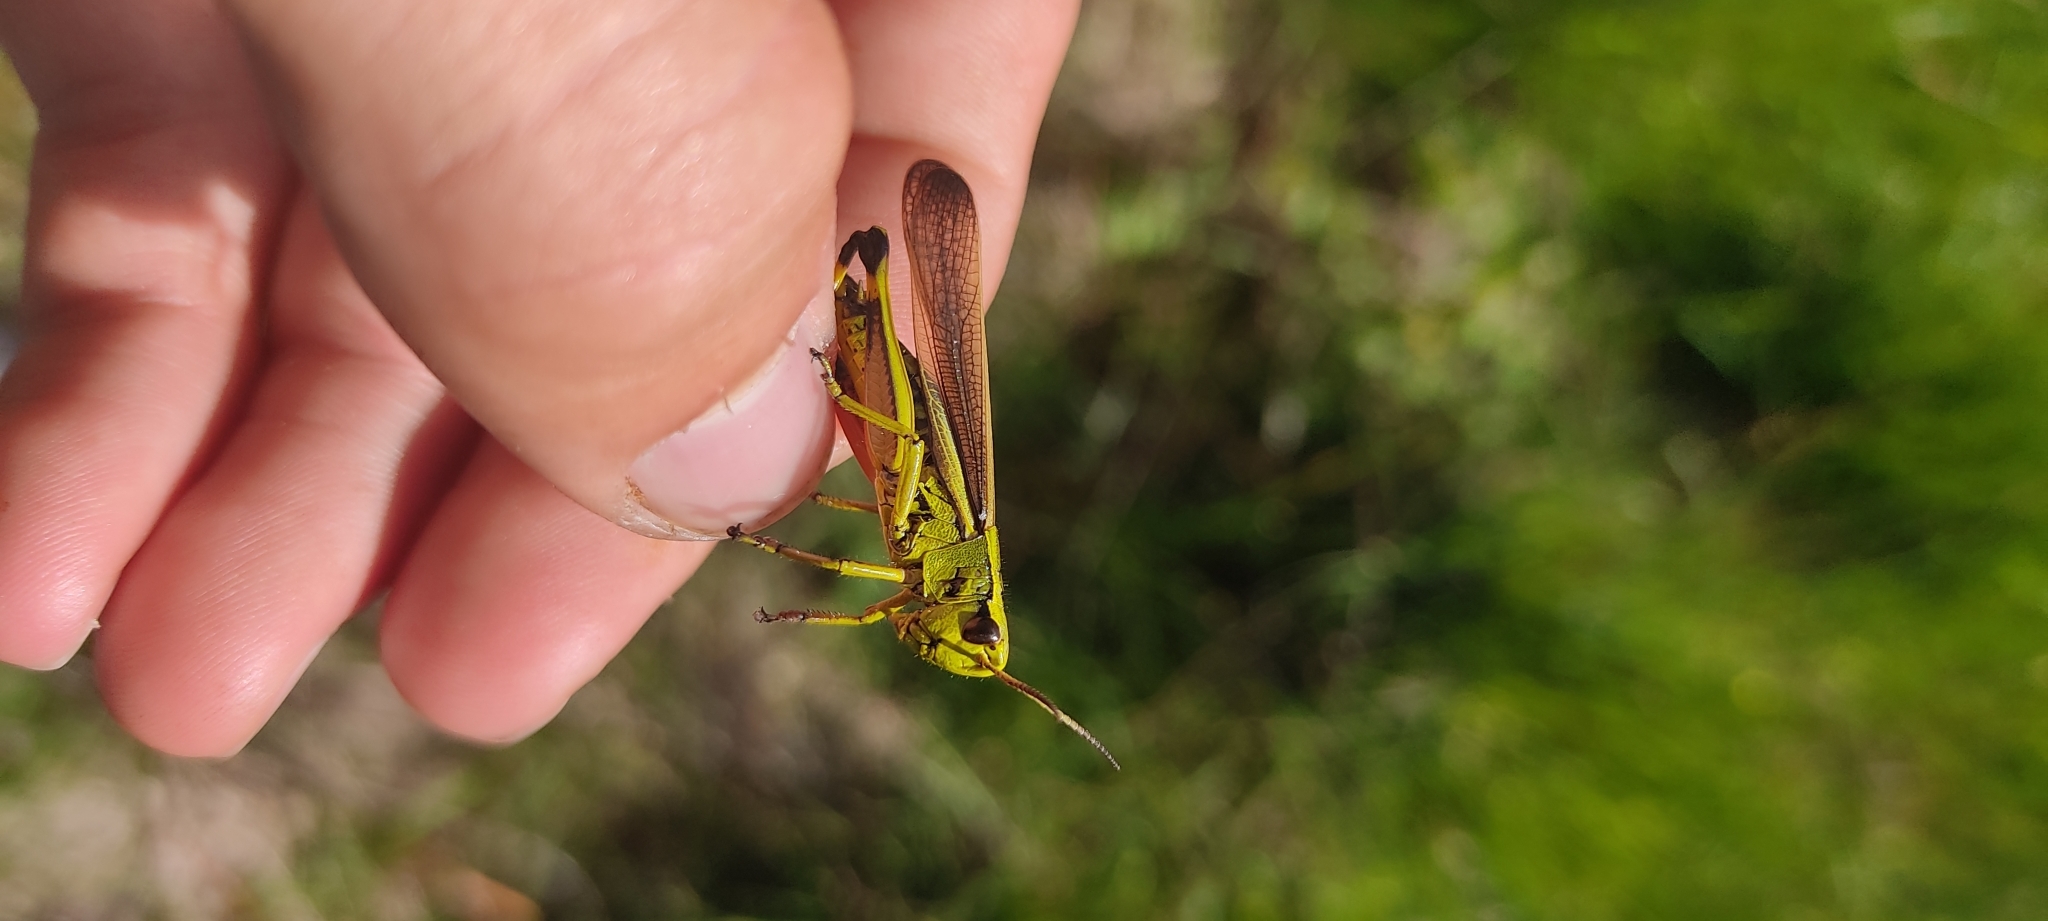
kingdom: Animalia
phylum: Arthropoda
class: Insecta
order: Orthoptera
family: Acrididae
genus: Stethophyma
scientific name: Stethophyma grossum
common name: Large marsh grasshopper
